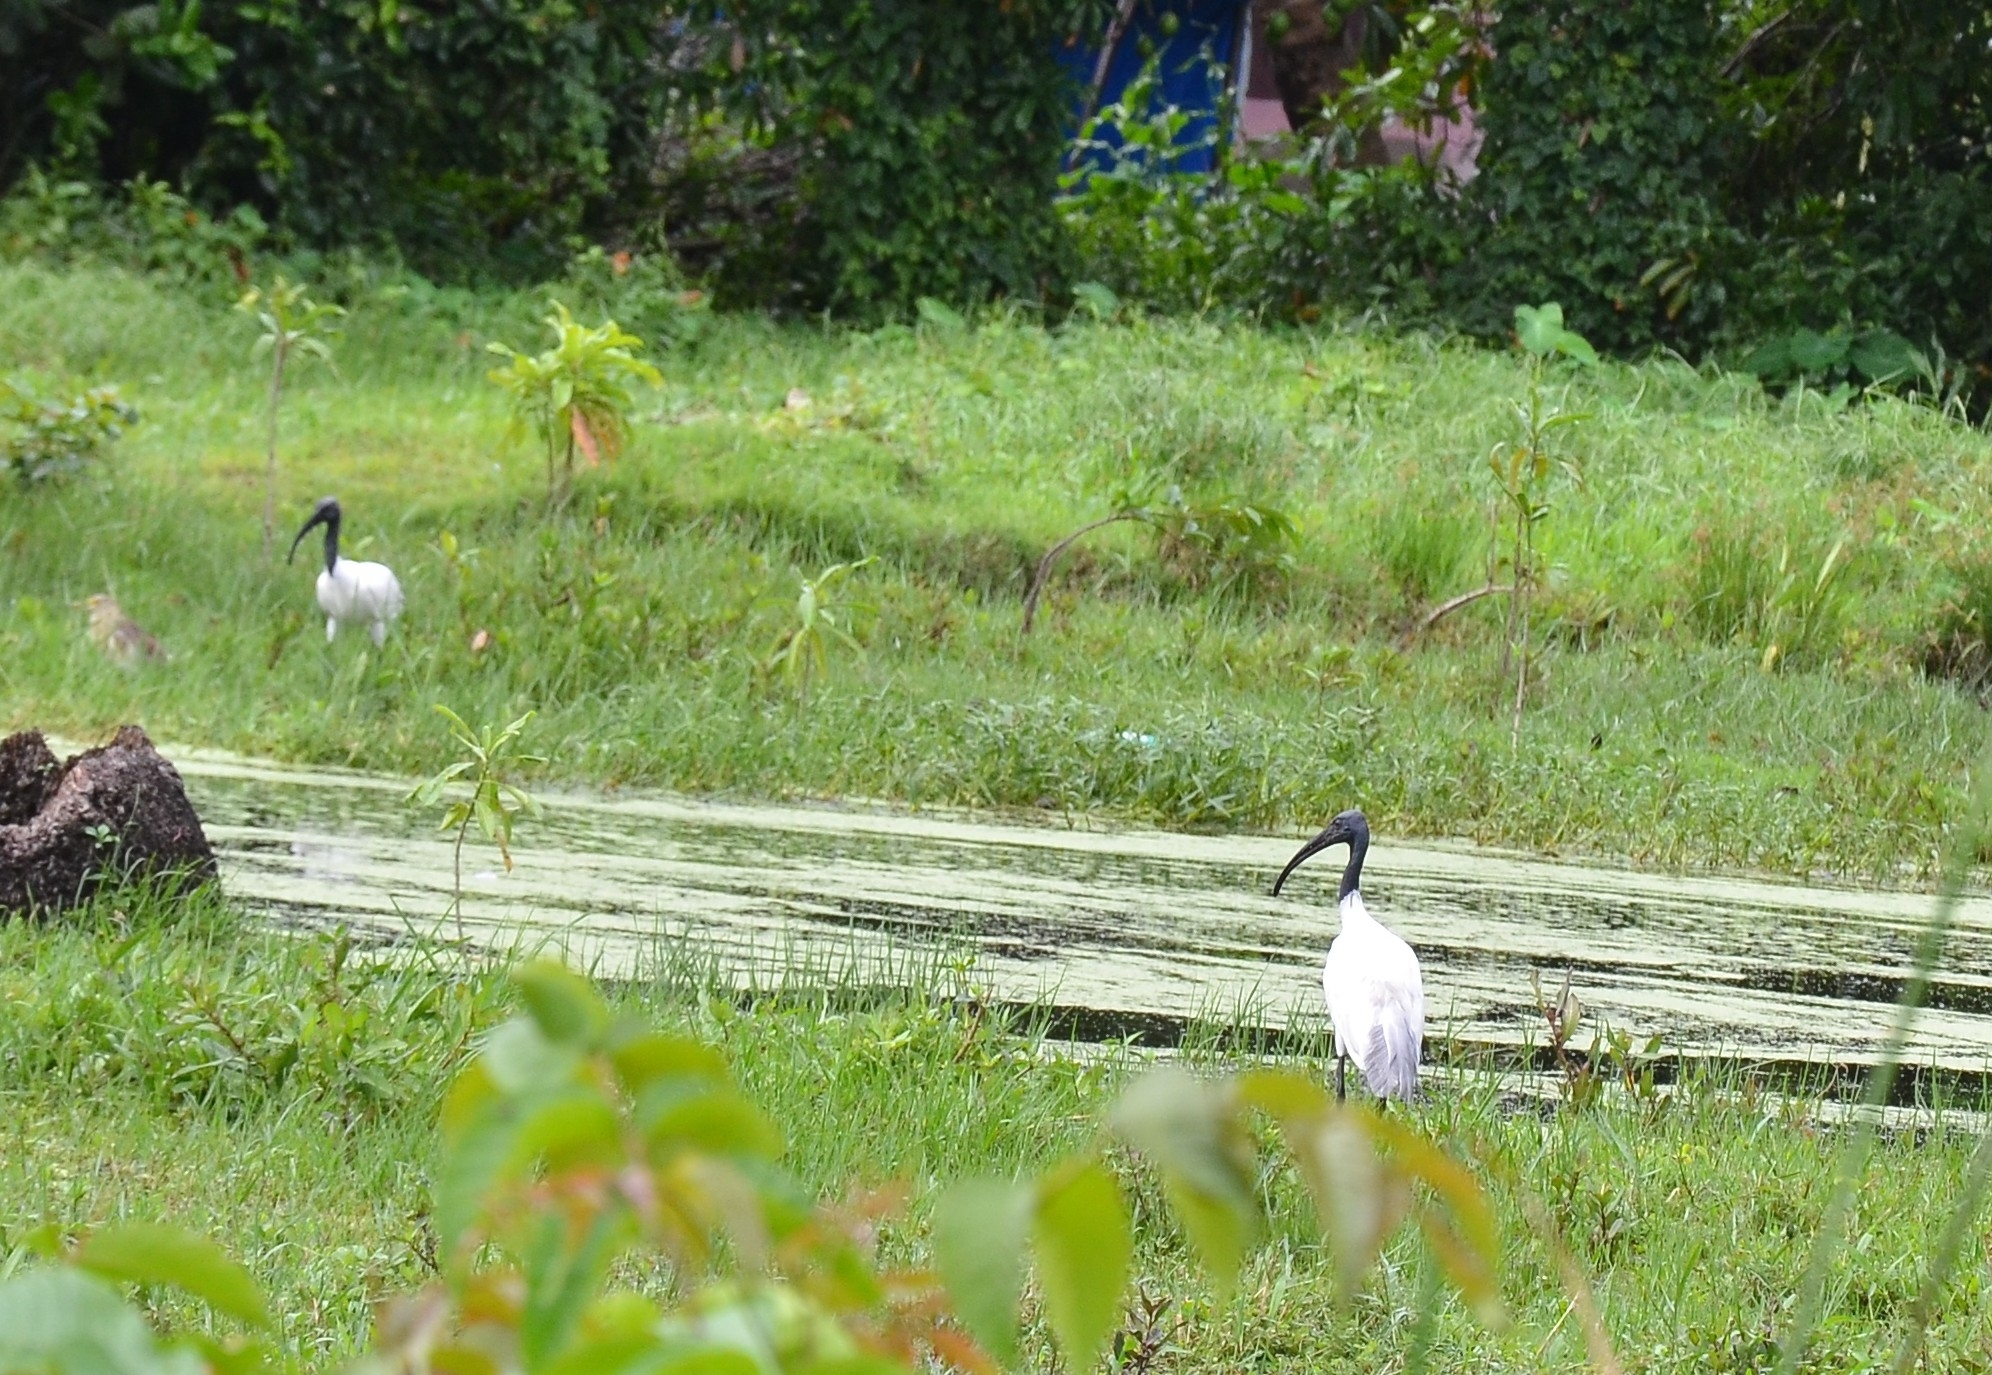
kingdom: Animalia
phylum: Chordata
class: Aves
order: Pelecaniformes
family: Threskiornithidae
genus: Threskiornis
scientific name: Threskiornis melanocephalus
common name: Black-headed ibis
